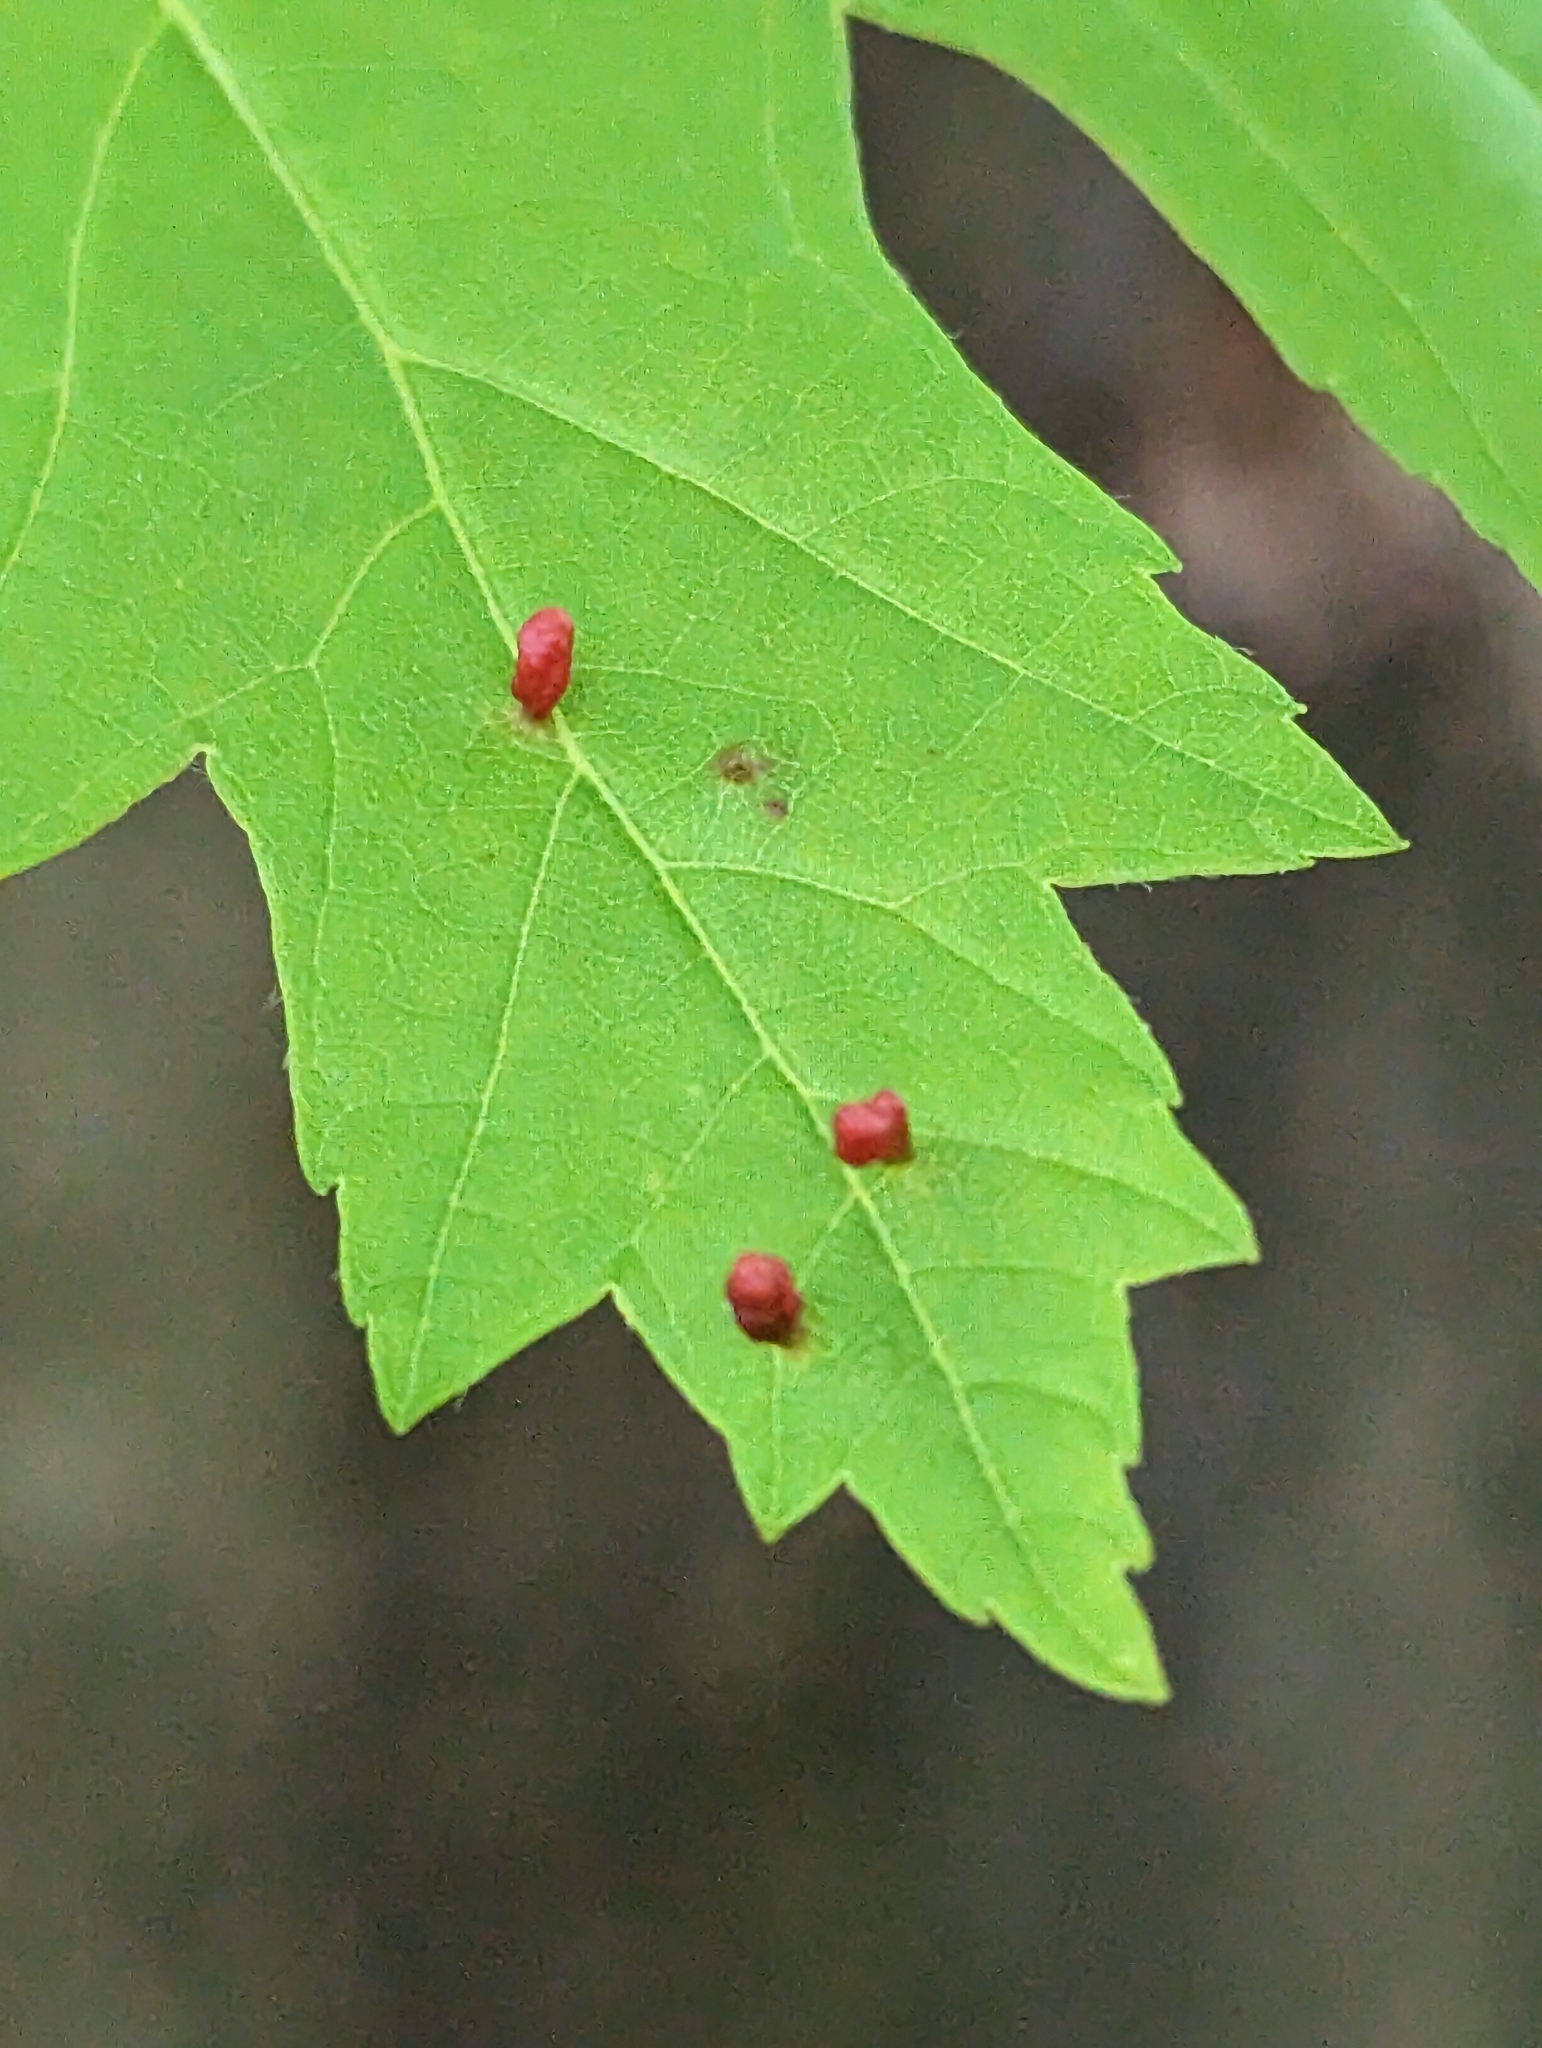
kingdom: Animalia
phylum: Arthropoda
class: Arachnida
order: Trombidiformes
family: Eriophyidae
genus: Vasates
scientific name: Vasates quadripedes
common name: Maple bladder gall mite
